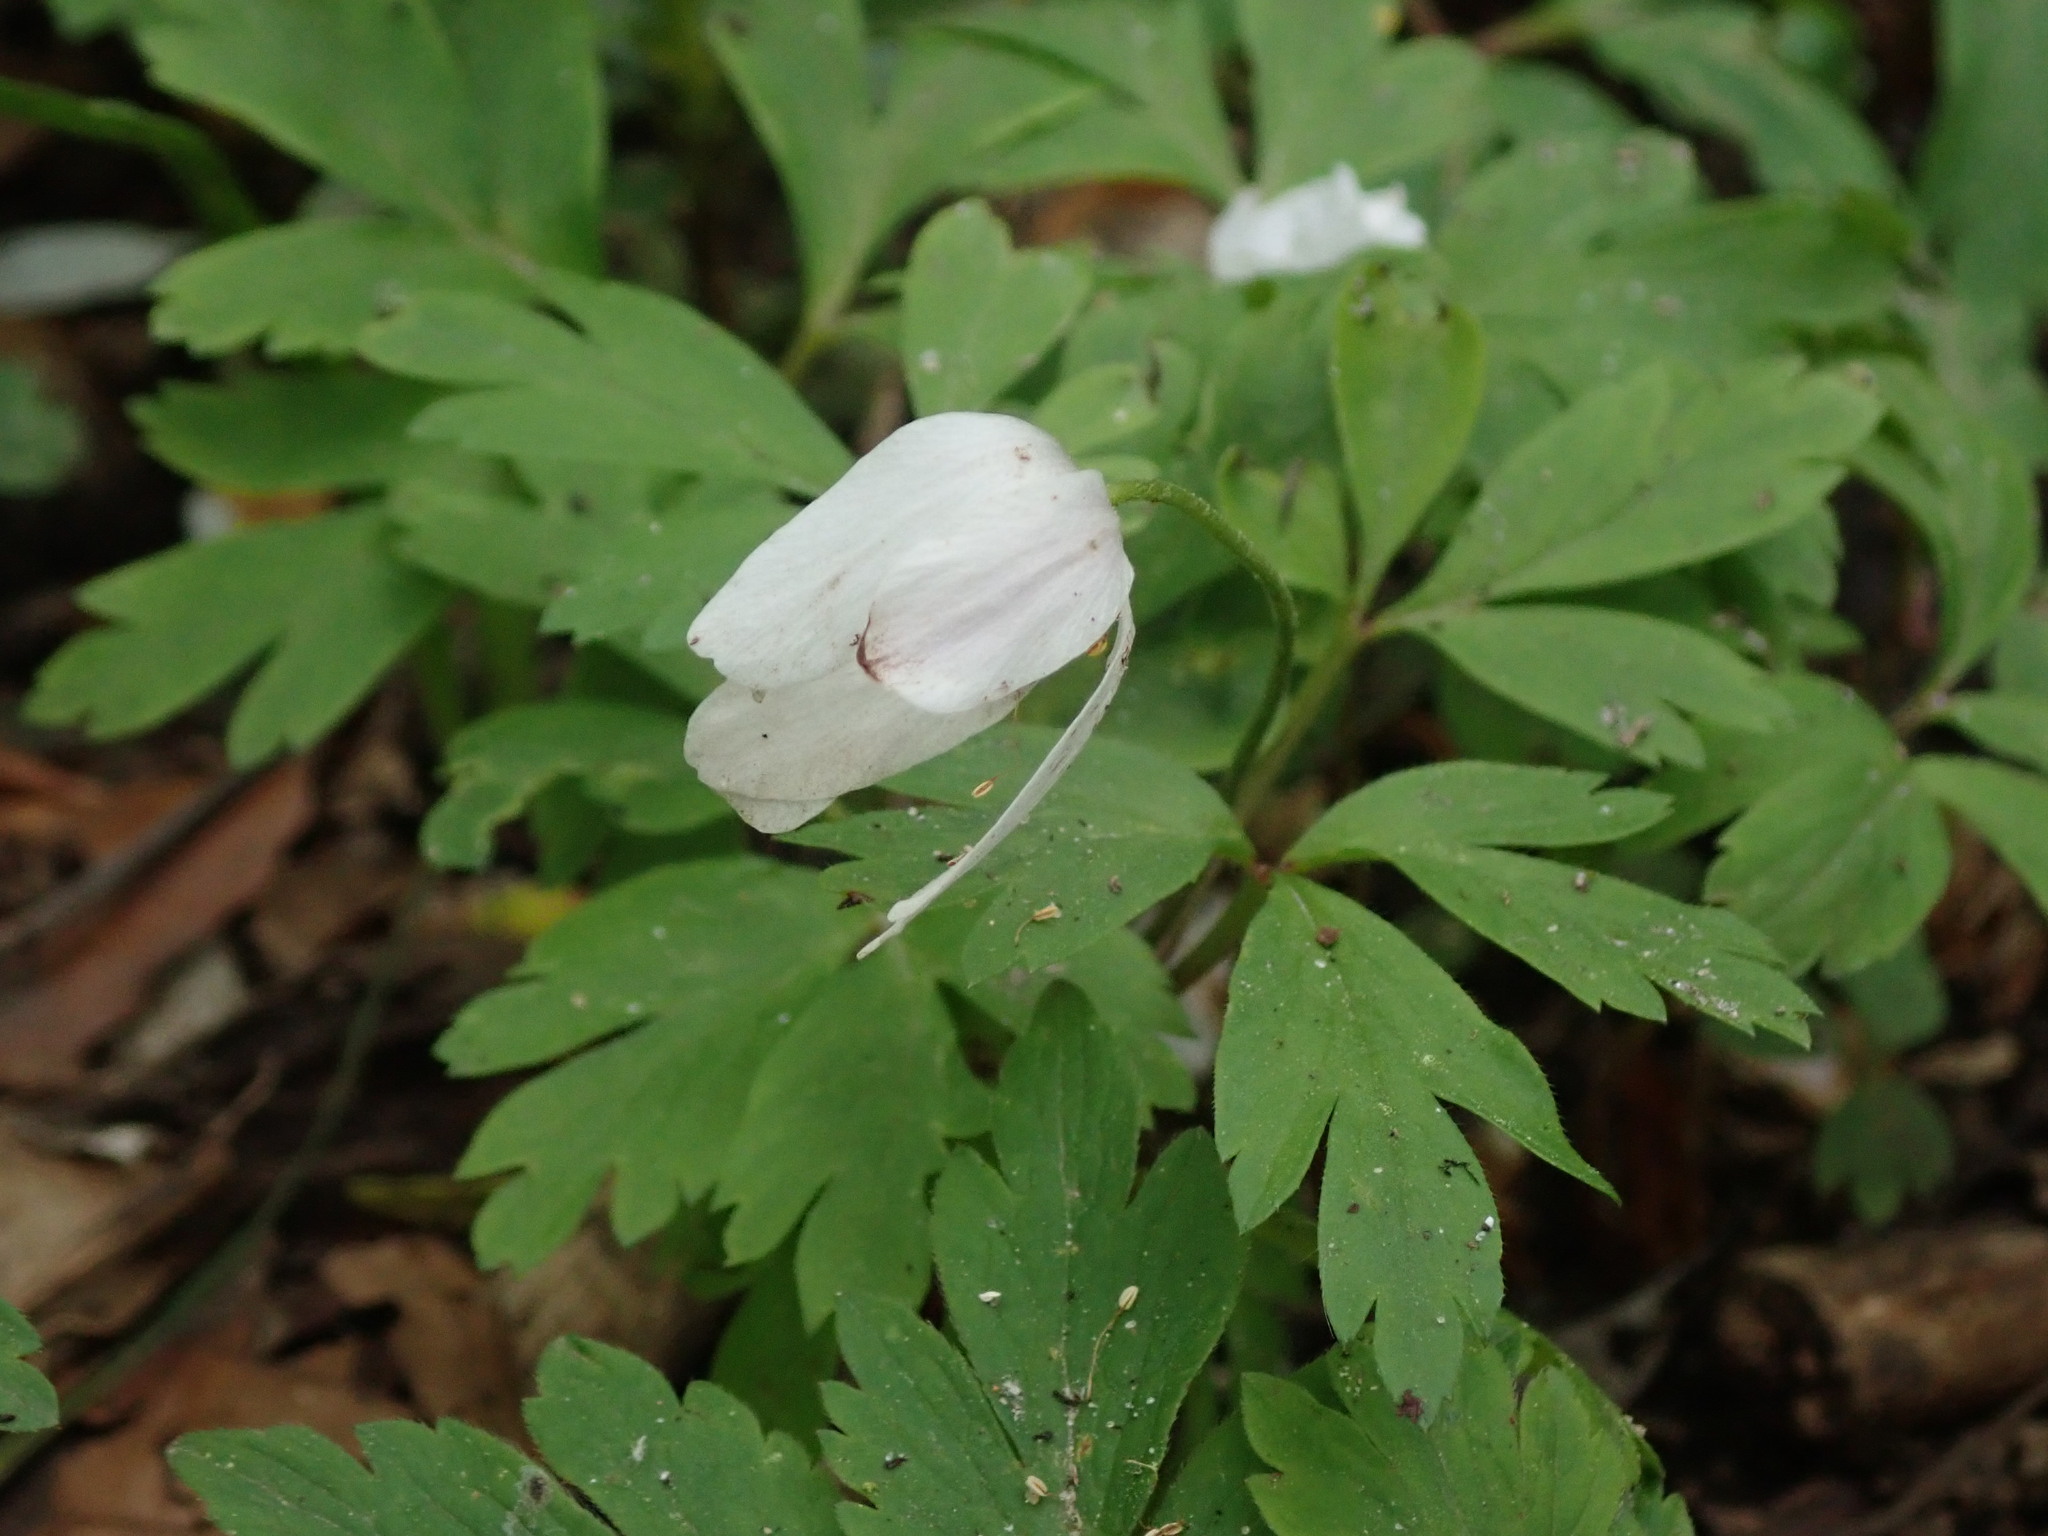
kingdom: Plantae
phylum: Tracheophyta
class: Magnoliopsida
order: Ranunculales
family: Ranunculaceae
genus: Anemone
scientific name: Anemone nemorosa
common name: Wood anemone
